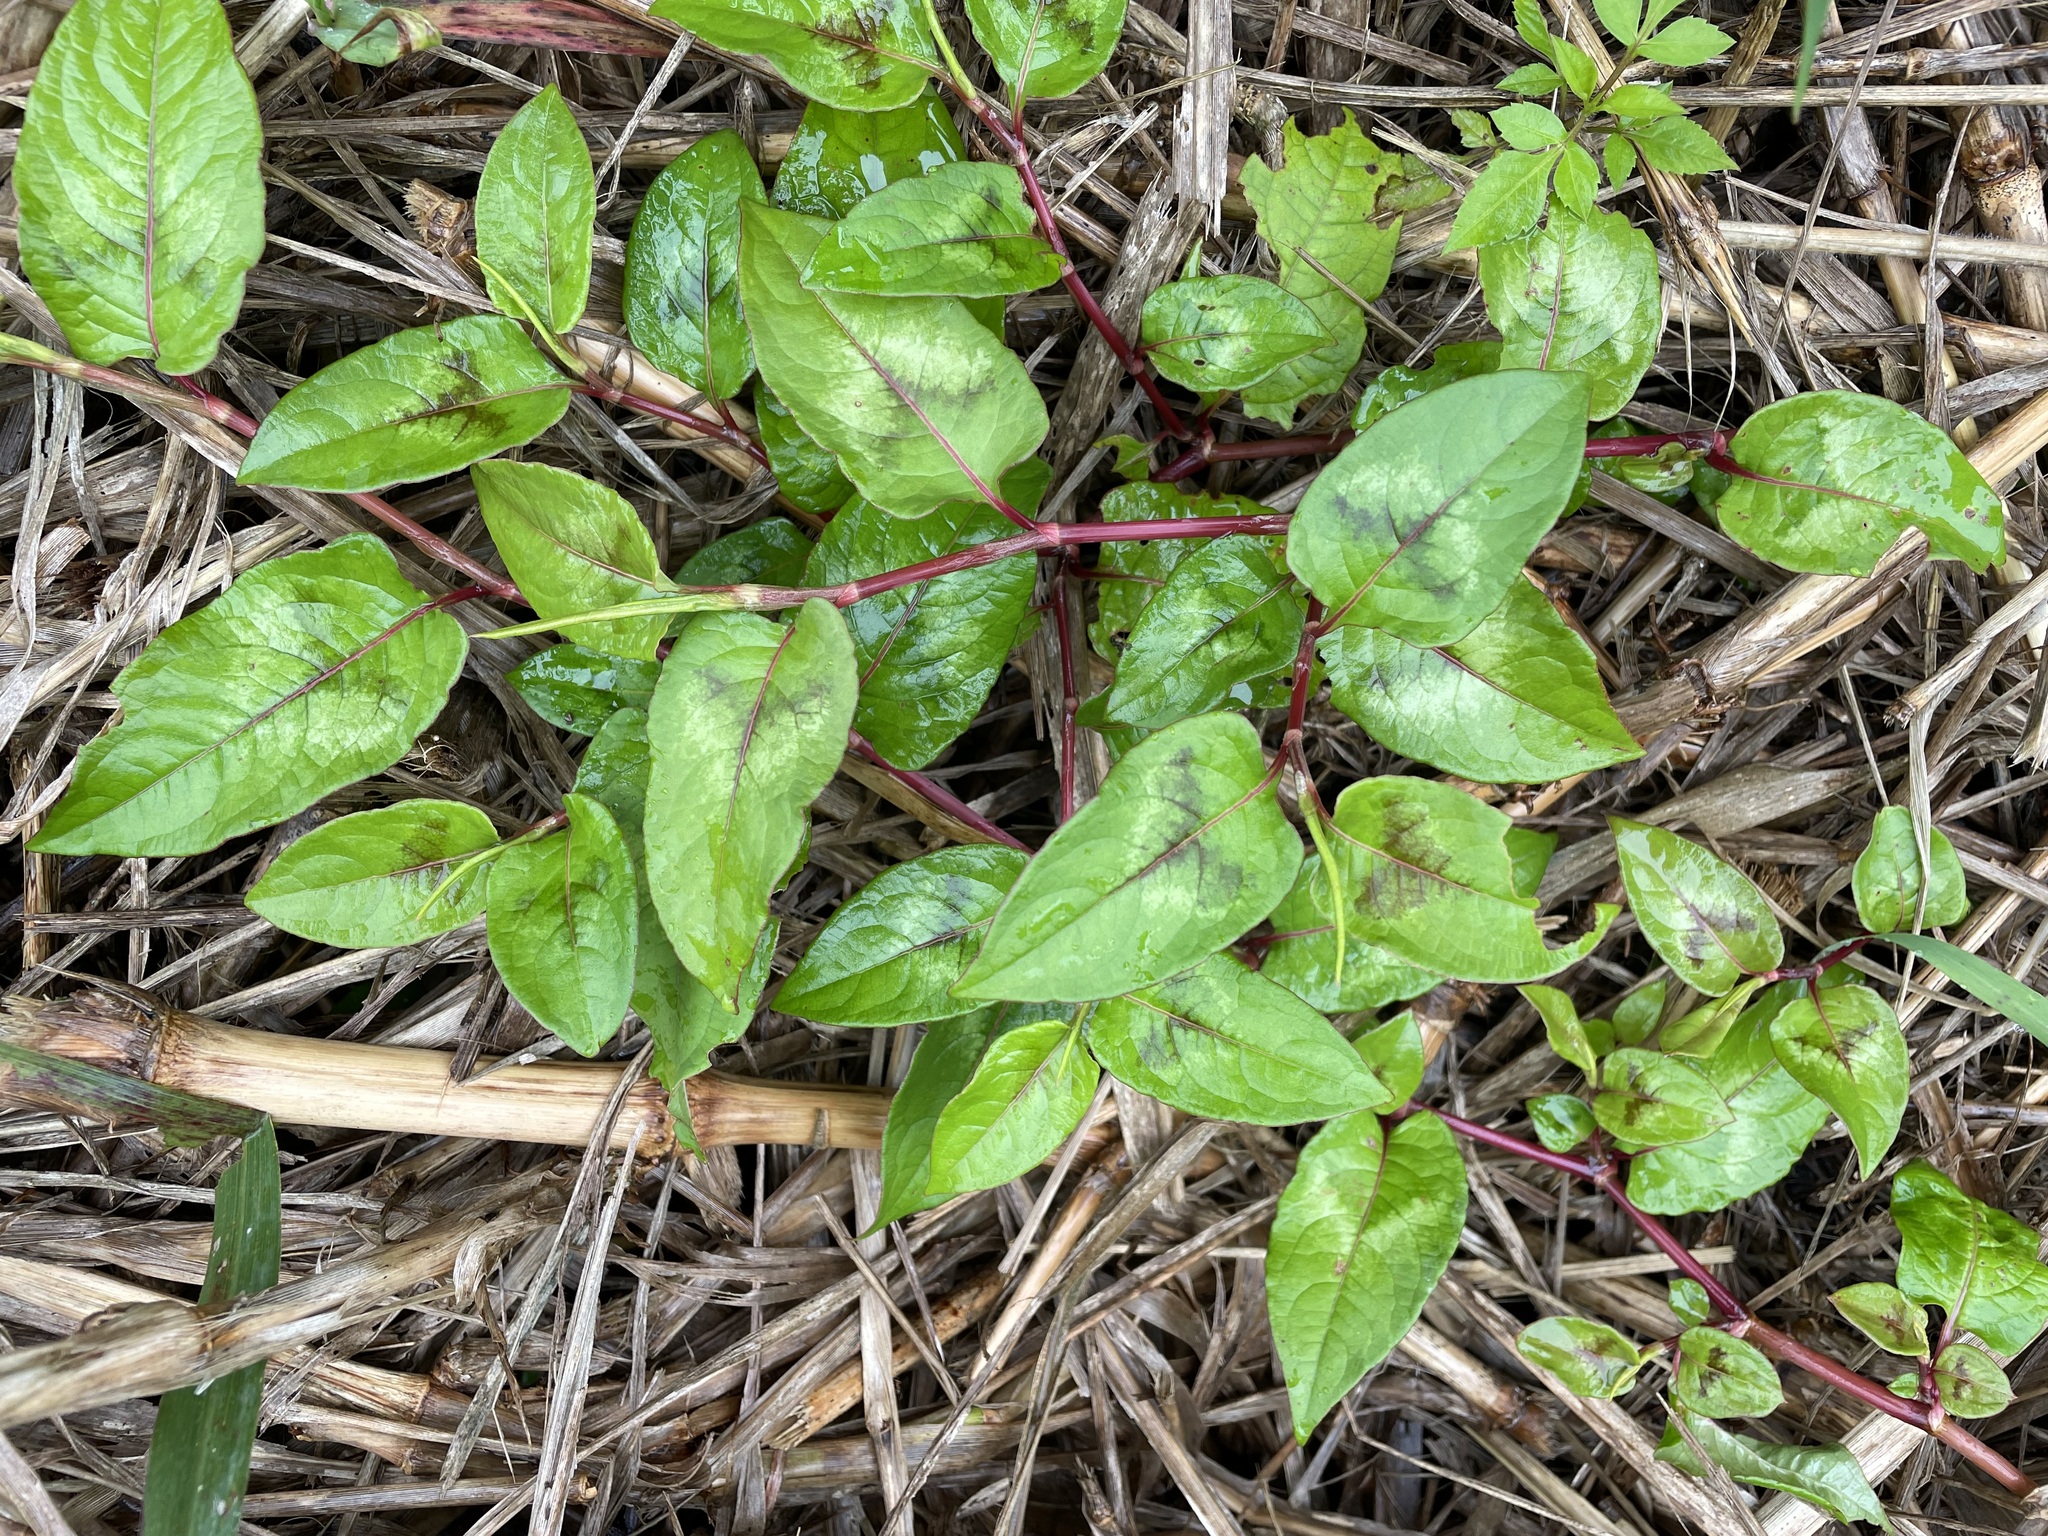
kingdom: Plantae
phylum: Tracheophyta
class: Magnoliopsida
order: Caryophyllales
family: Polygonaceae
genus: Persicaria
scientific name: Persicaria chinensis
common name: Chinese knotweed
